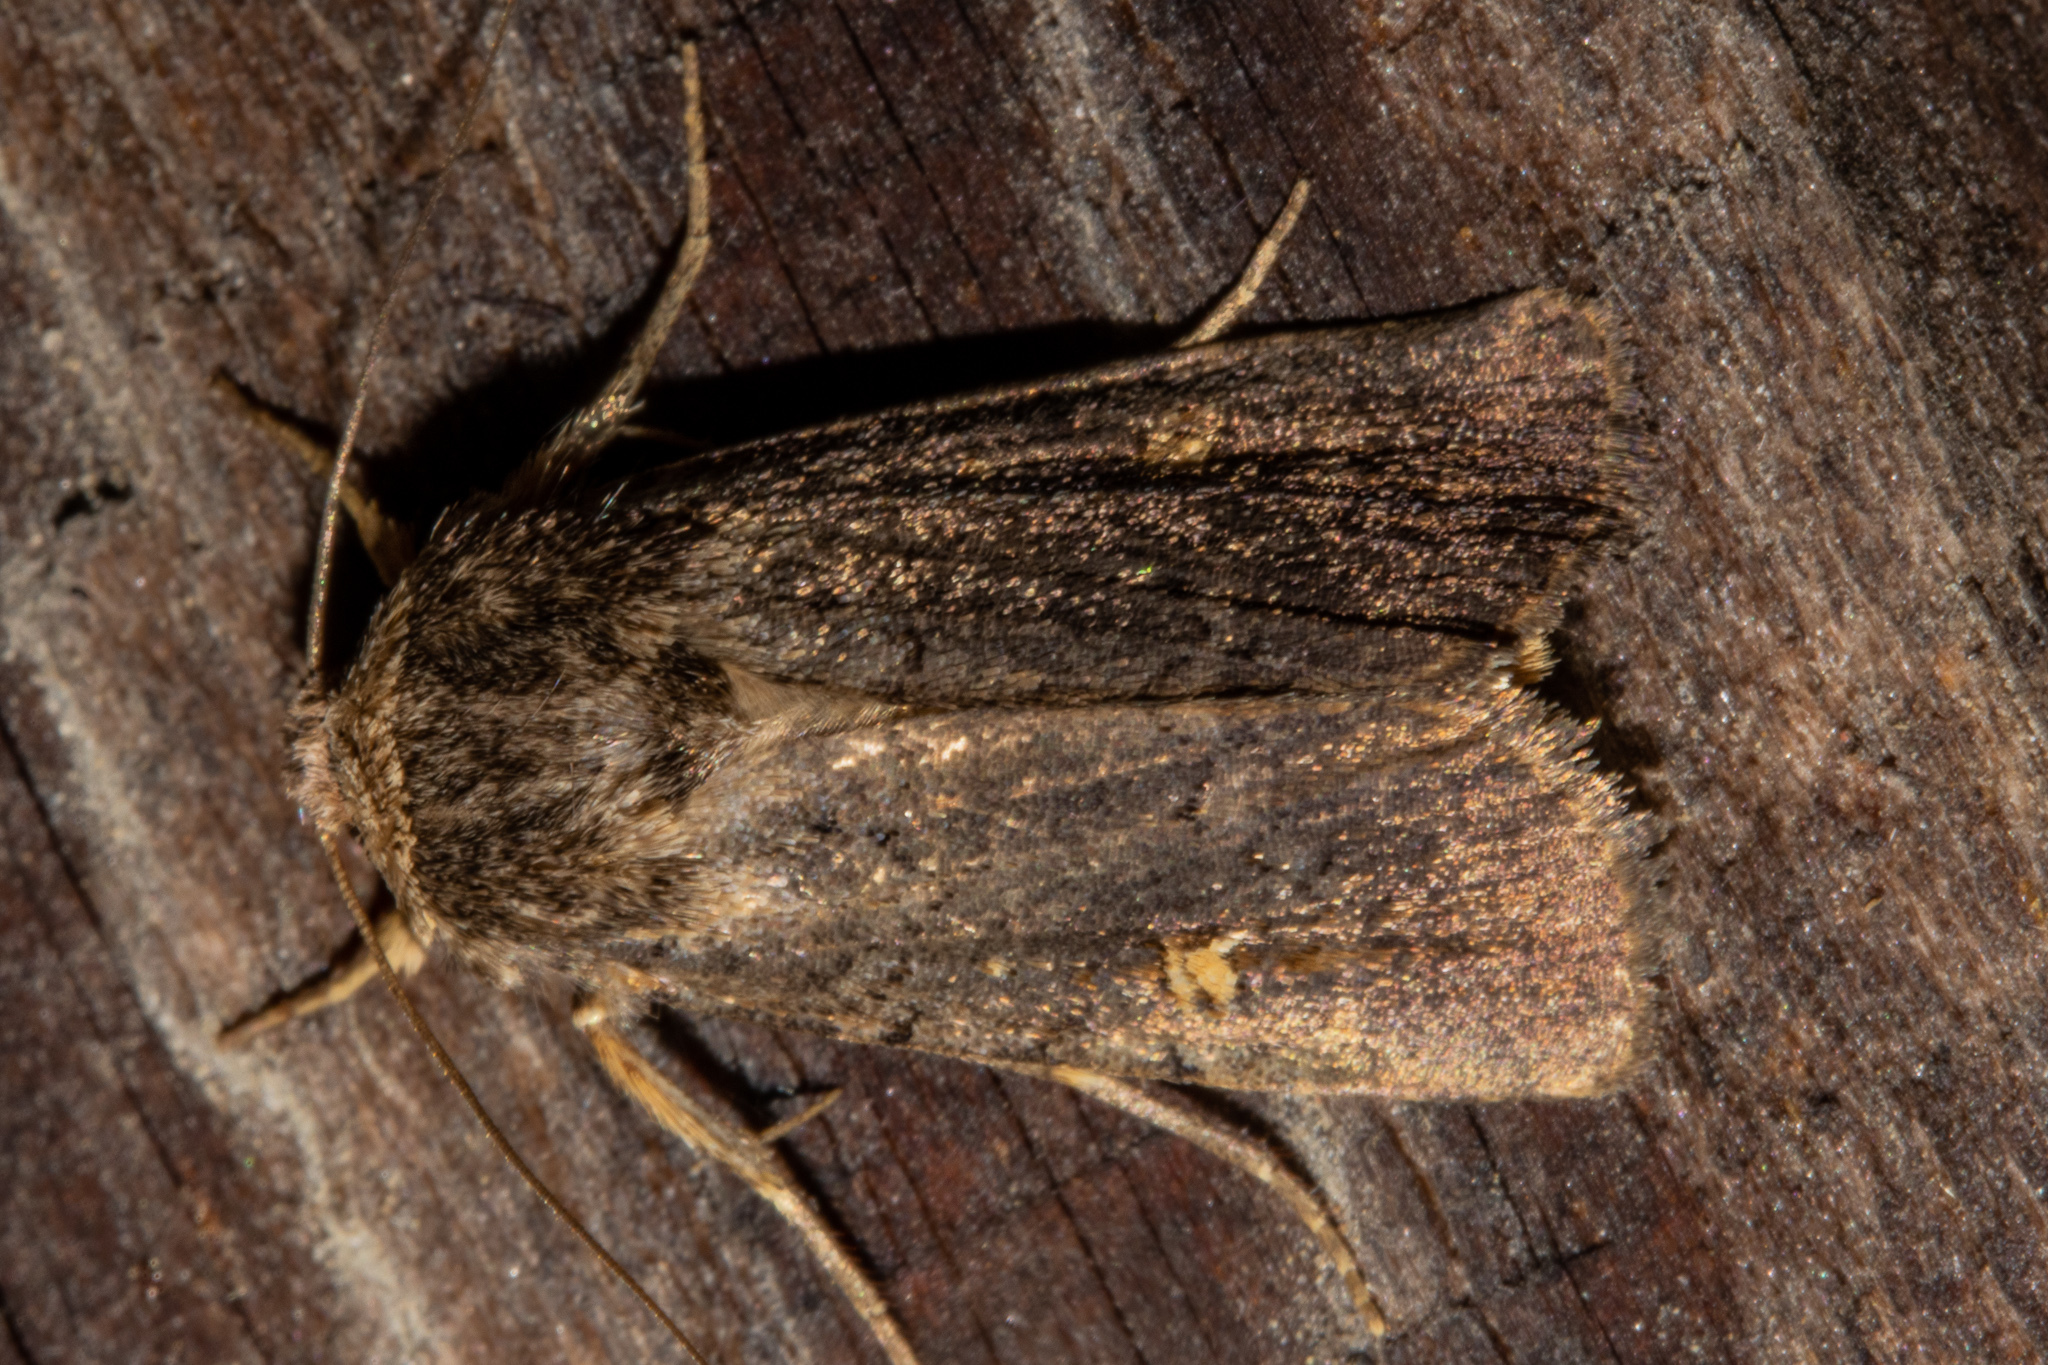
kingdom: Animalia
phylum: Arthropoda
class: Insecta
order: Lepidoptera
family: Noctuidae
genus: Proteuxoa
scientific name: Proteuxoa tetronycha
